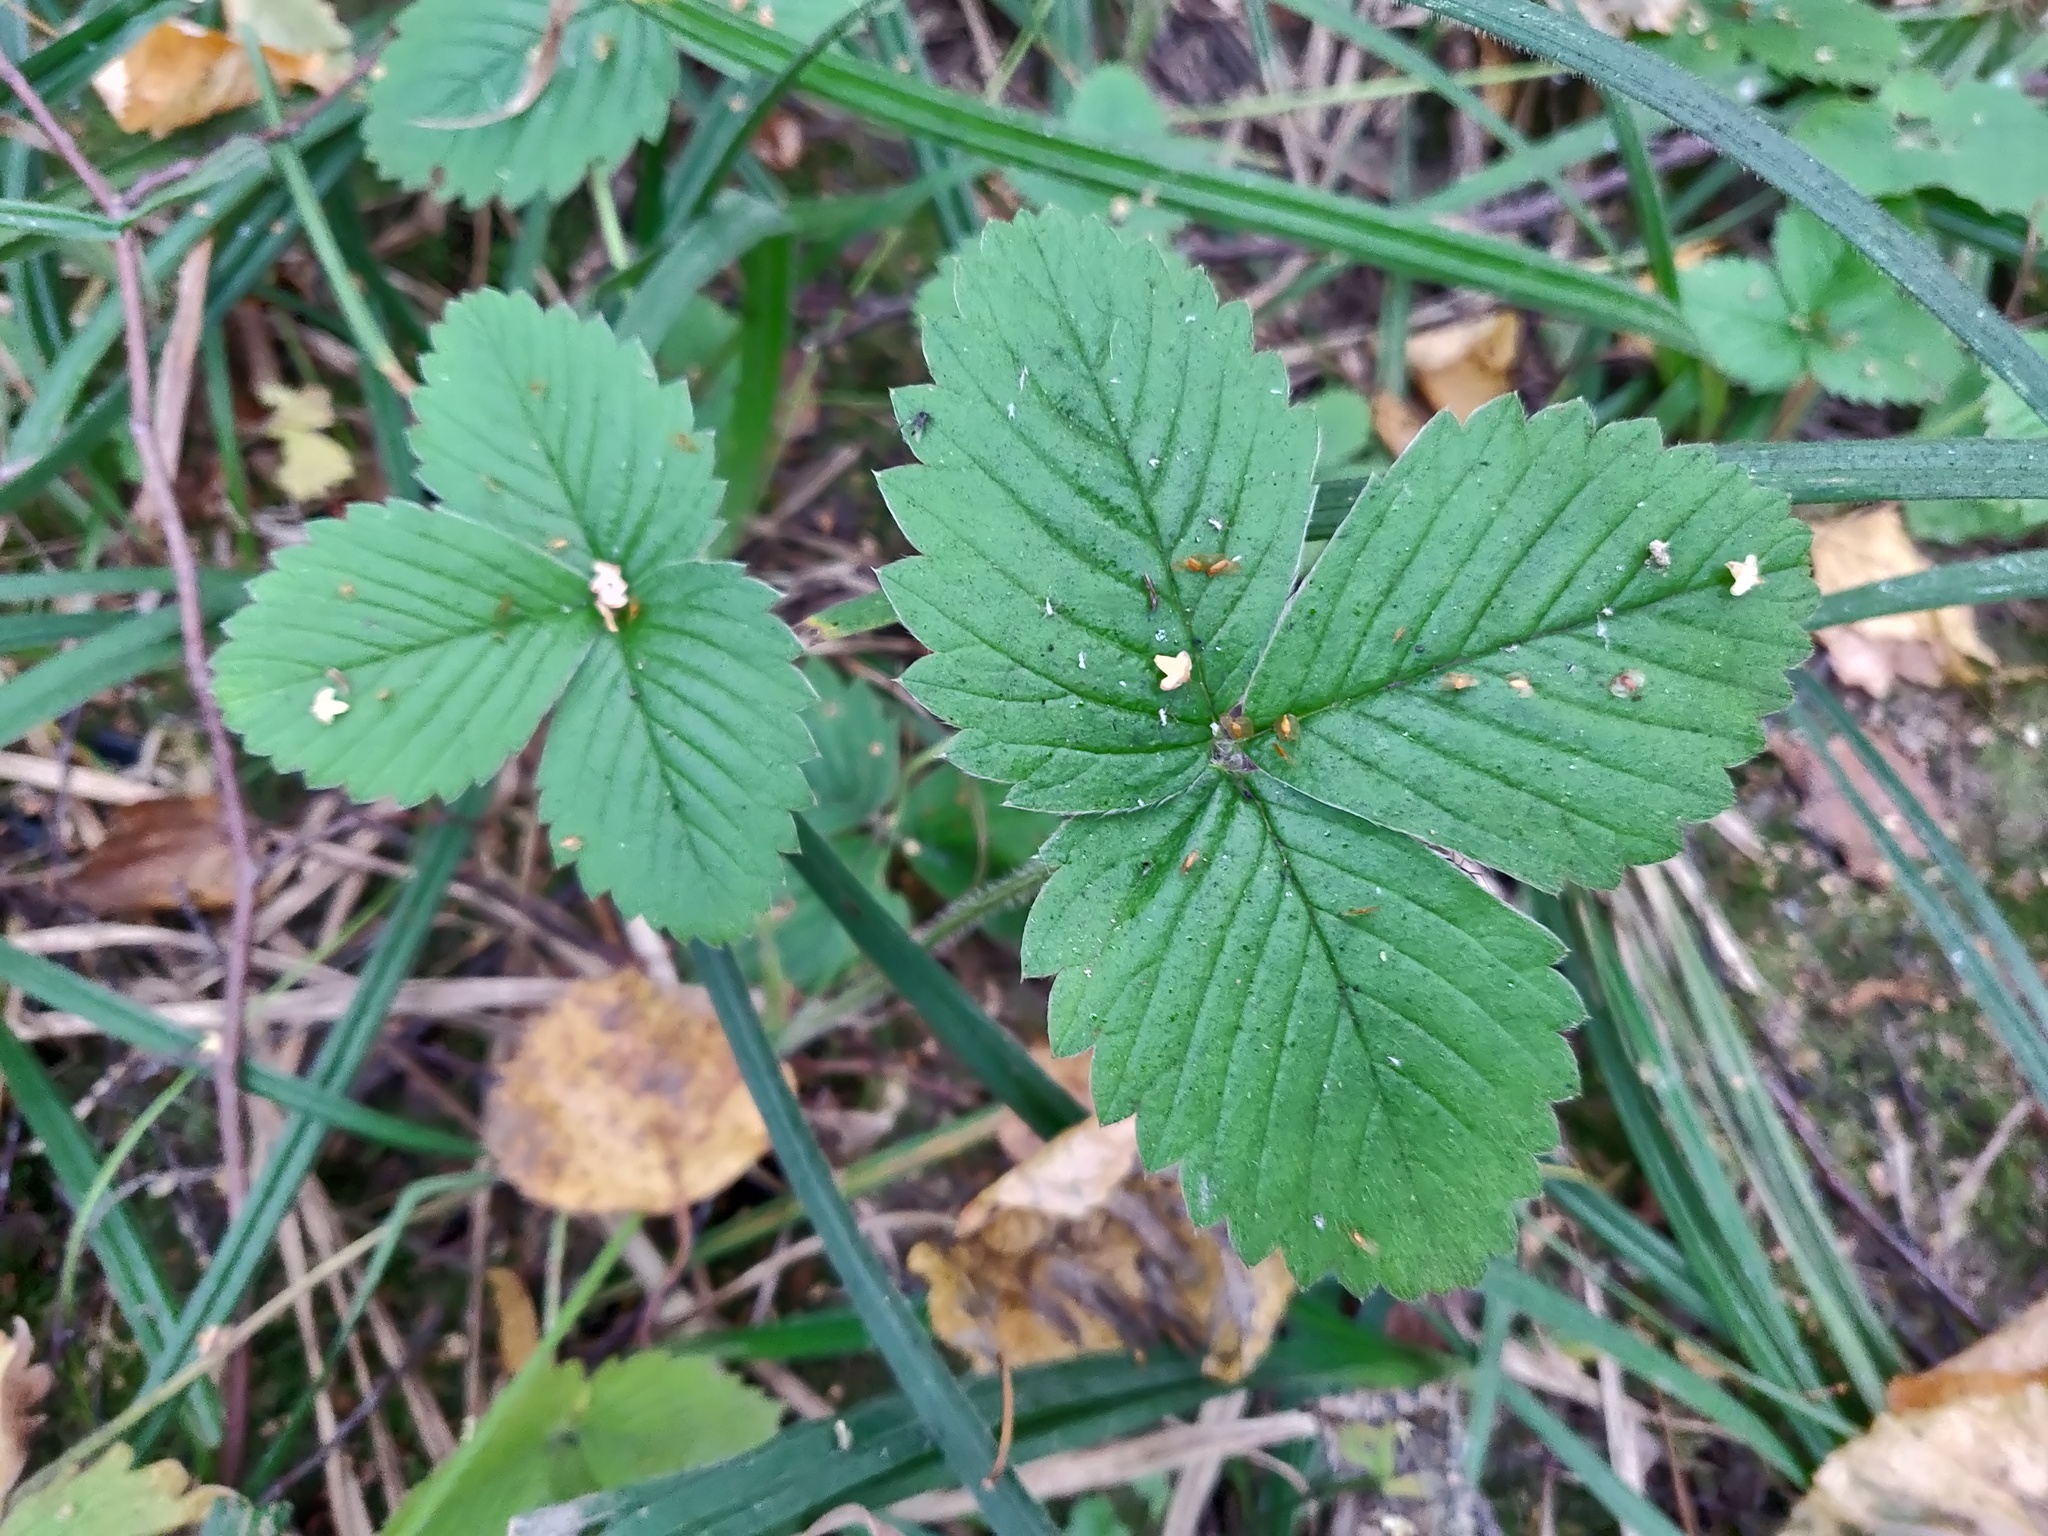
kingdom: Plantae
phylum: Tracheophyta
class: Magnoliopsida
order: Rosales
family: Rosaceae
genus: Fragaria
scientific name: Fragaria moschata
